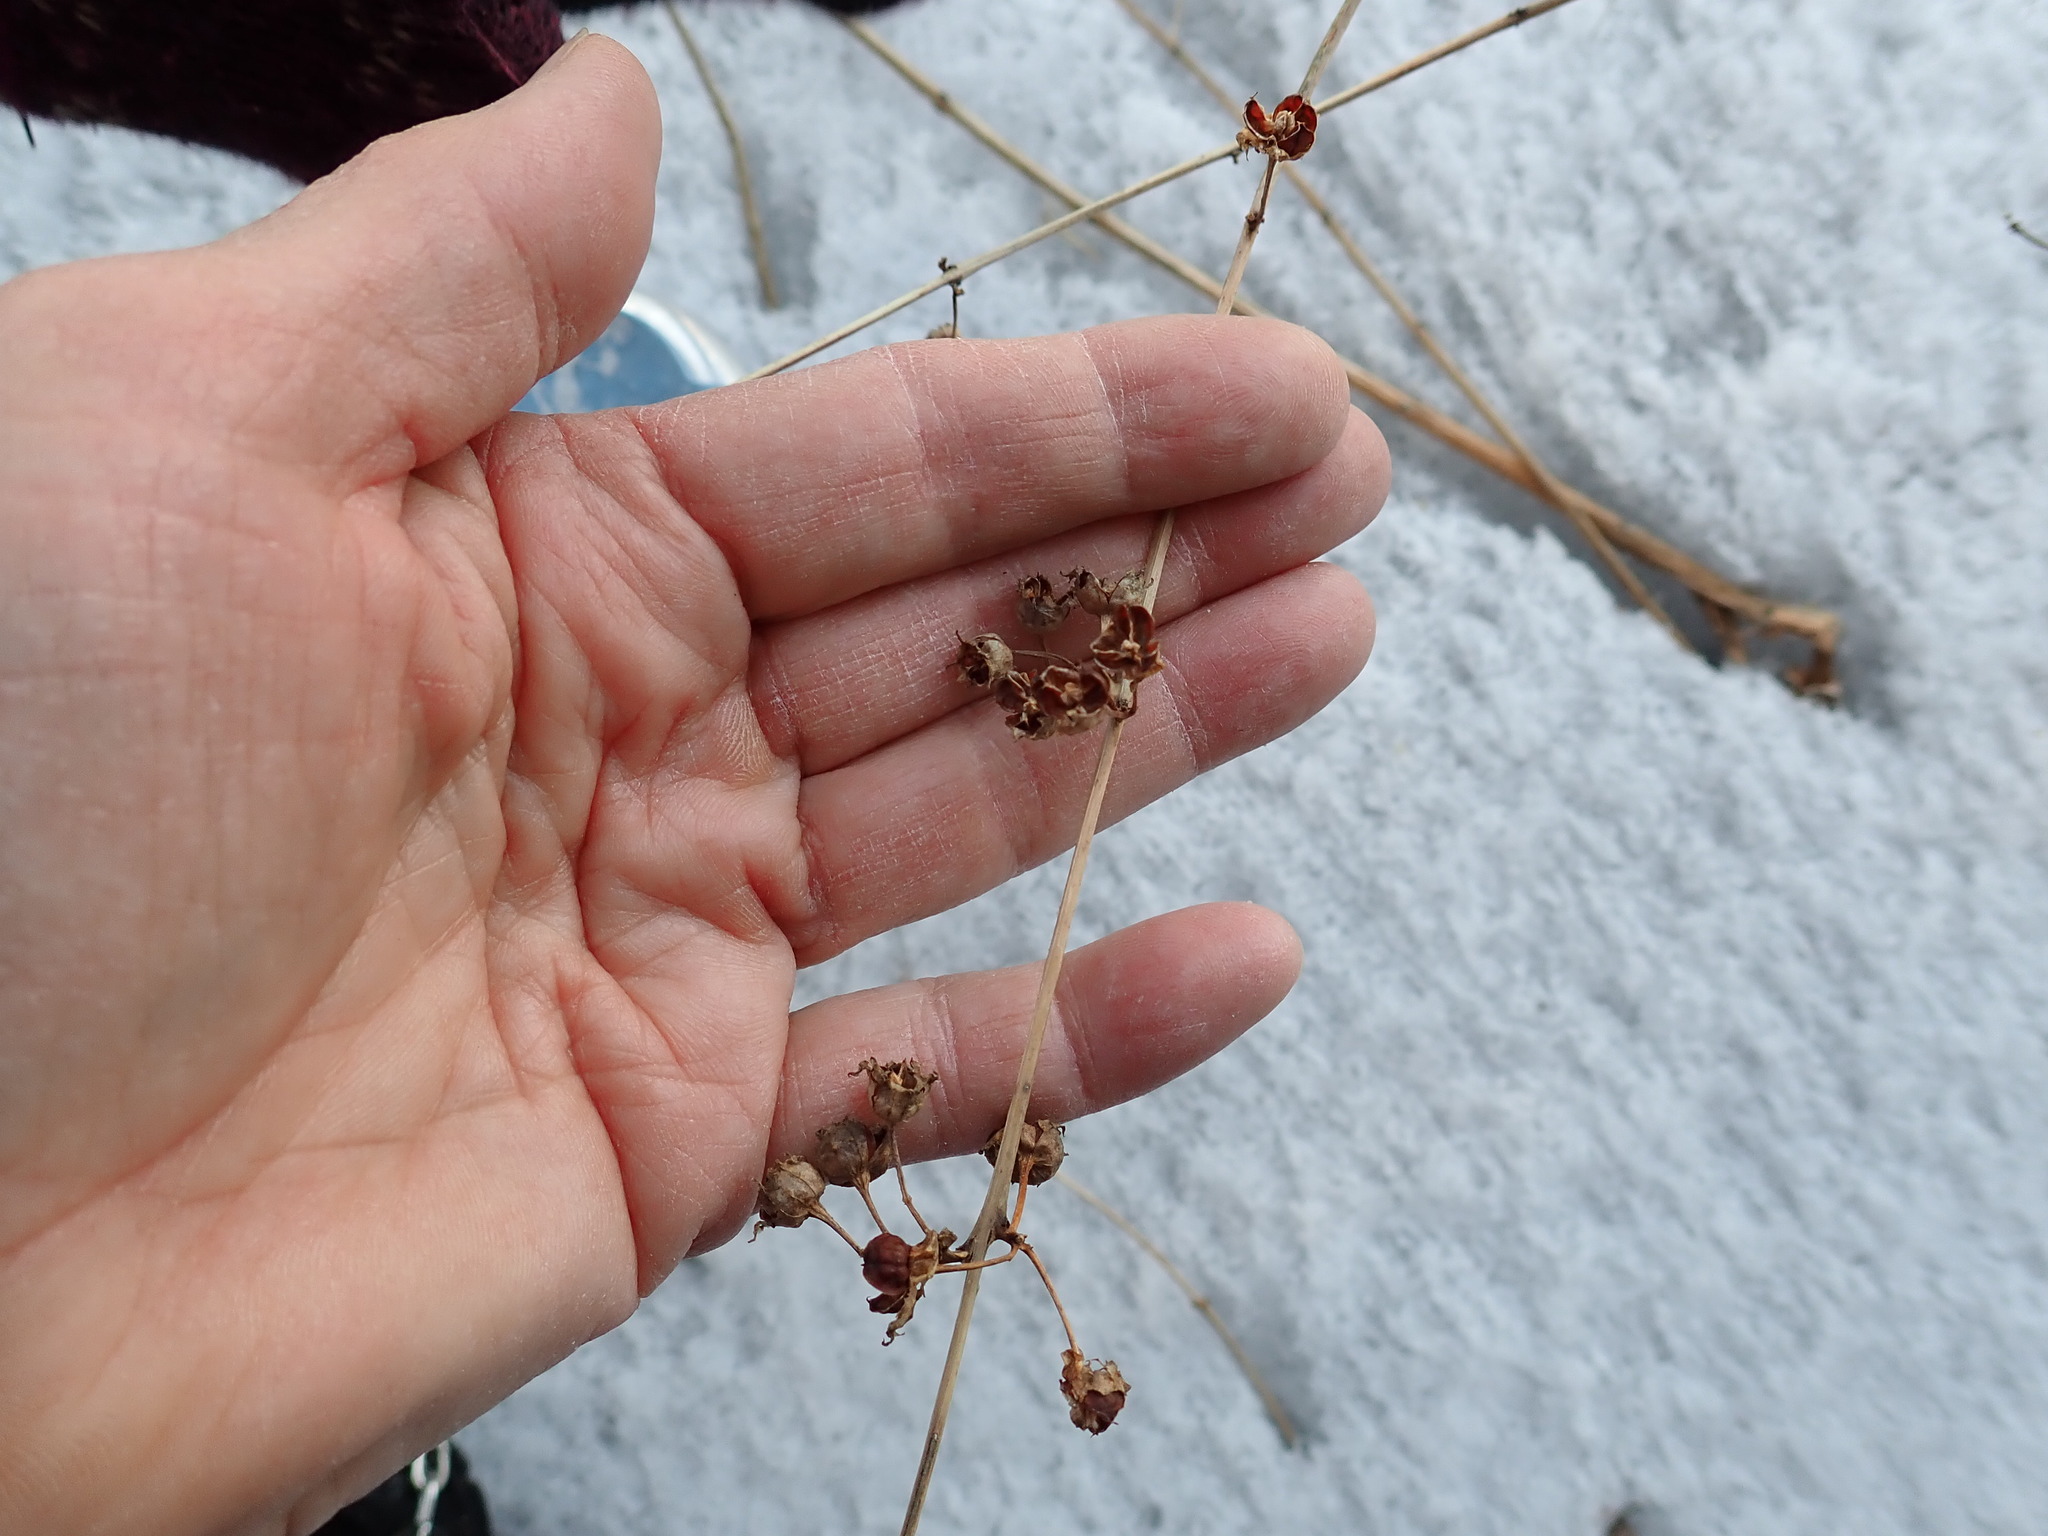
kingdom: Plantae
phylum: Tracheophyta
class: Magnoliopsida
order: Myrtales
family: Lythraceae
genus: Decodon
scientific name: Decodon verticillatus
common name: Hairy swamp loosestrife
